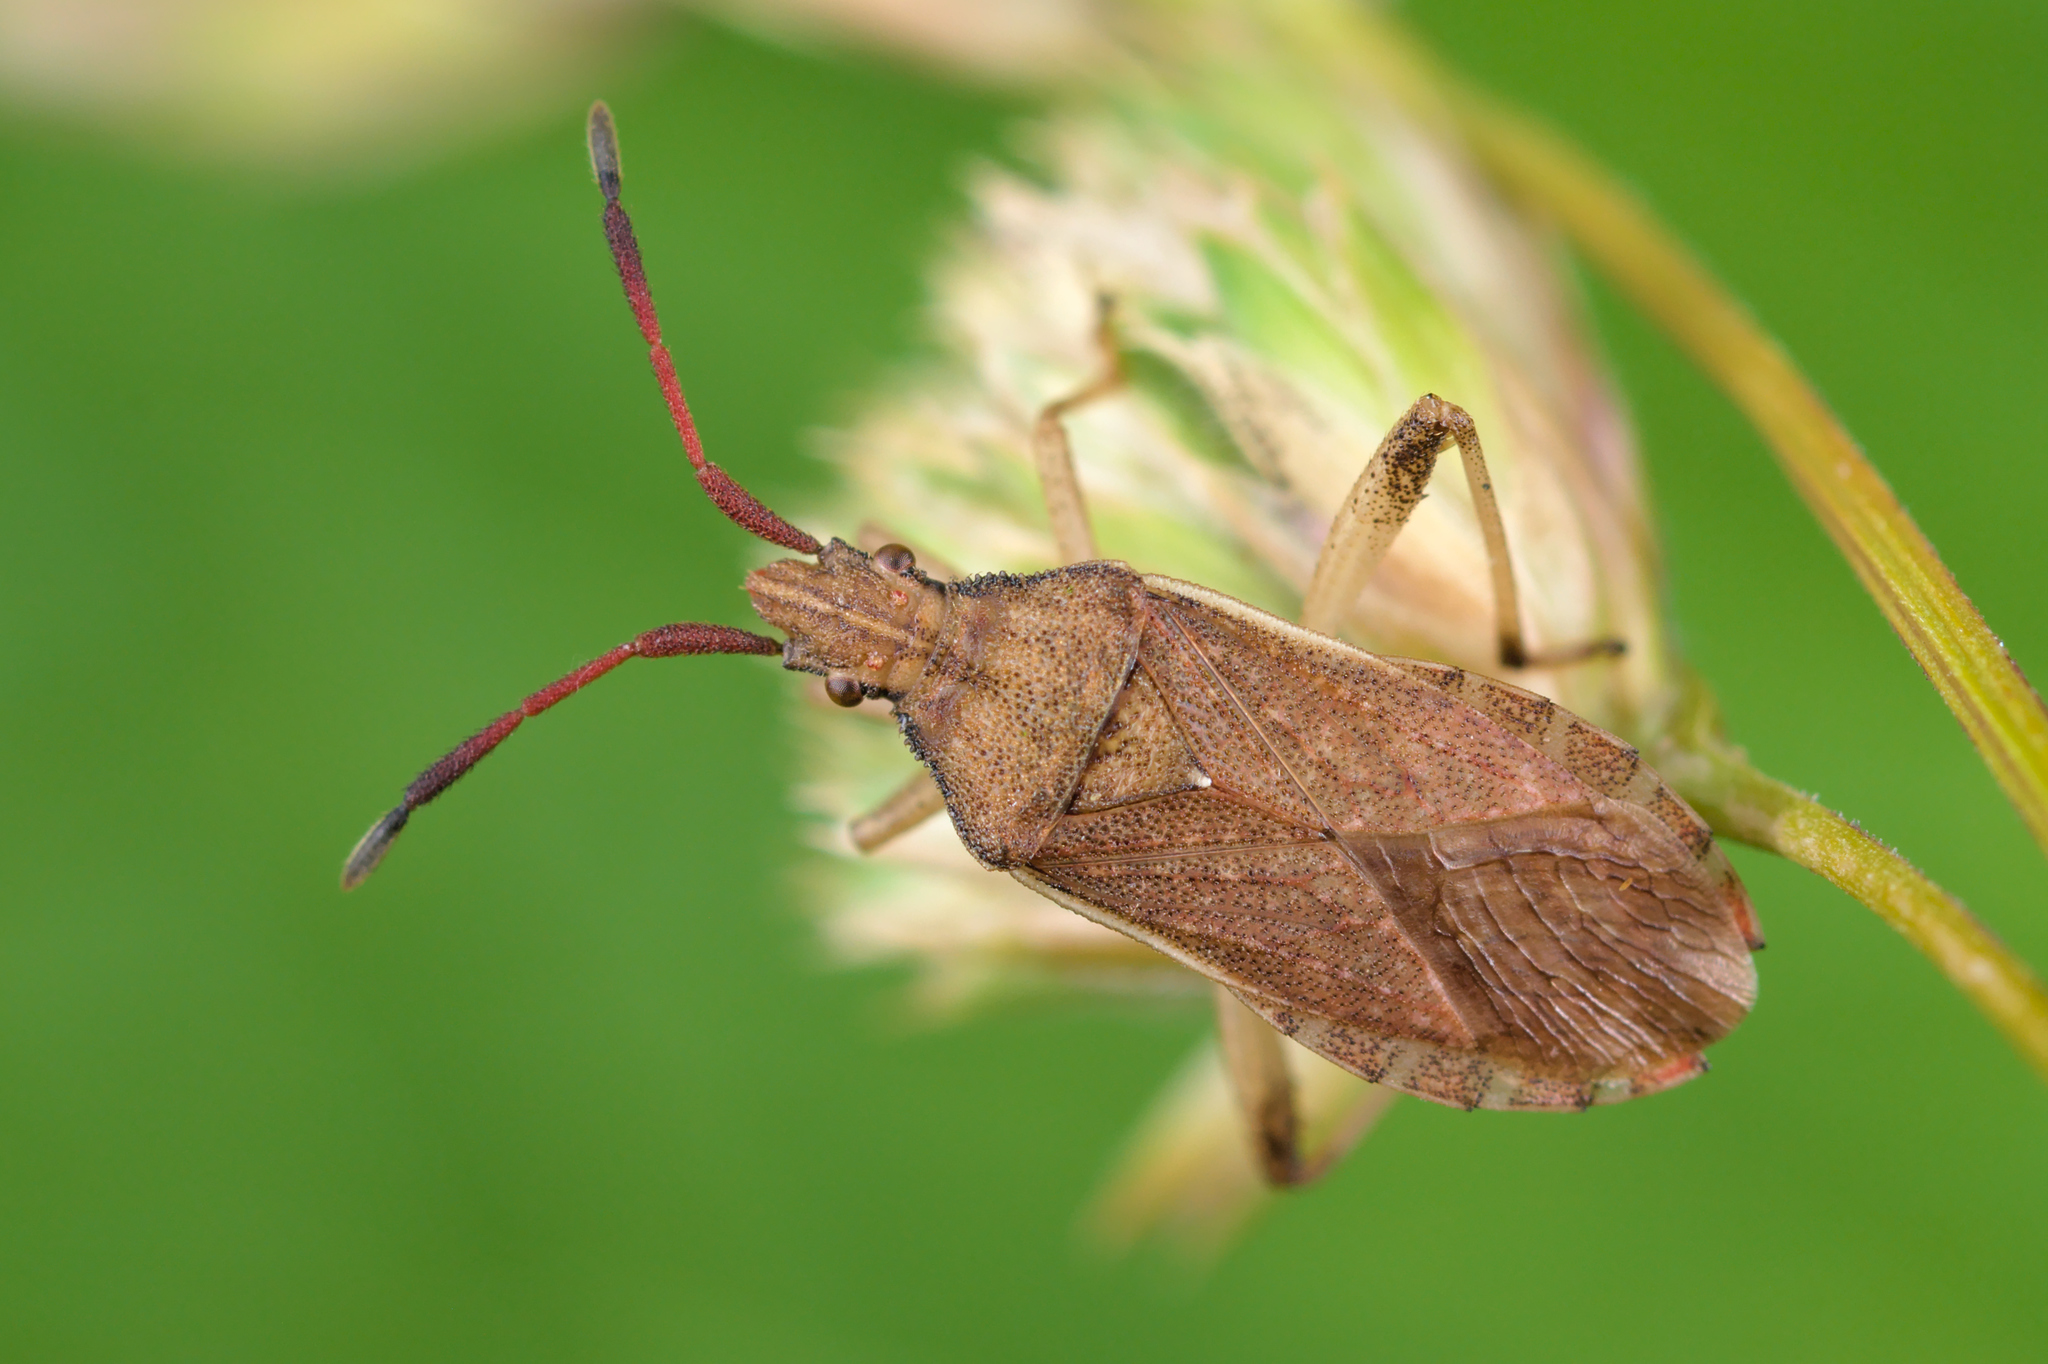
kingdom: Animalia
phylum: Arthropoda
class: Insecta
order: Hemiptera
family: Coreidae
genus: Ceraleptus
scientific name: Ceraleptus lividus
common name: Slender-horned leatherbug
